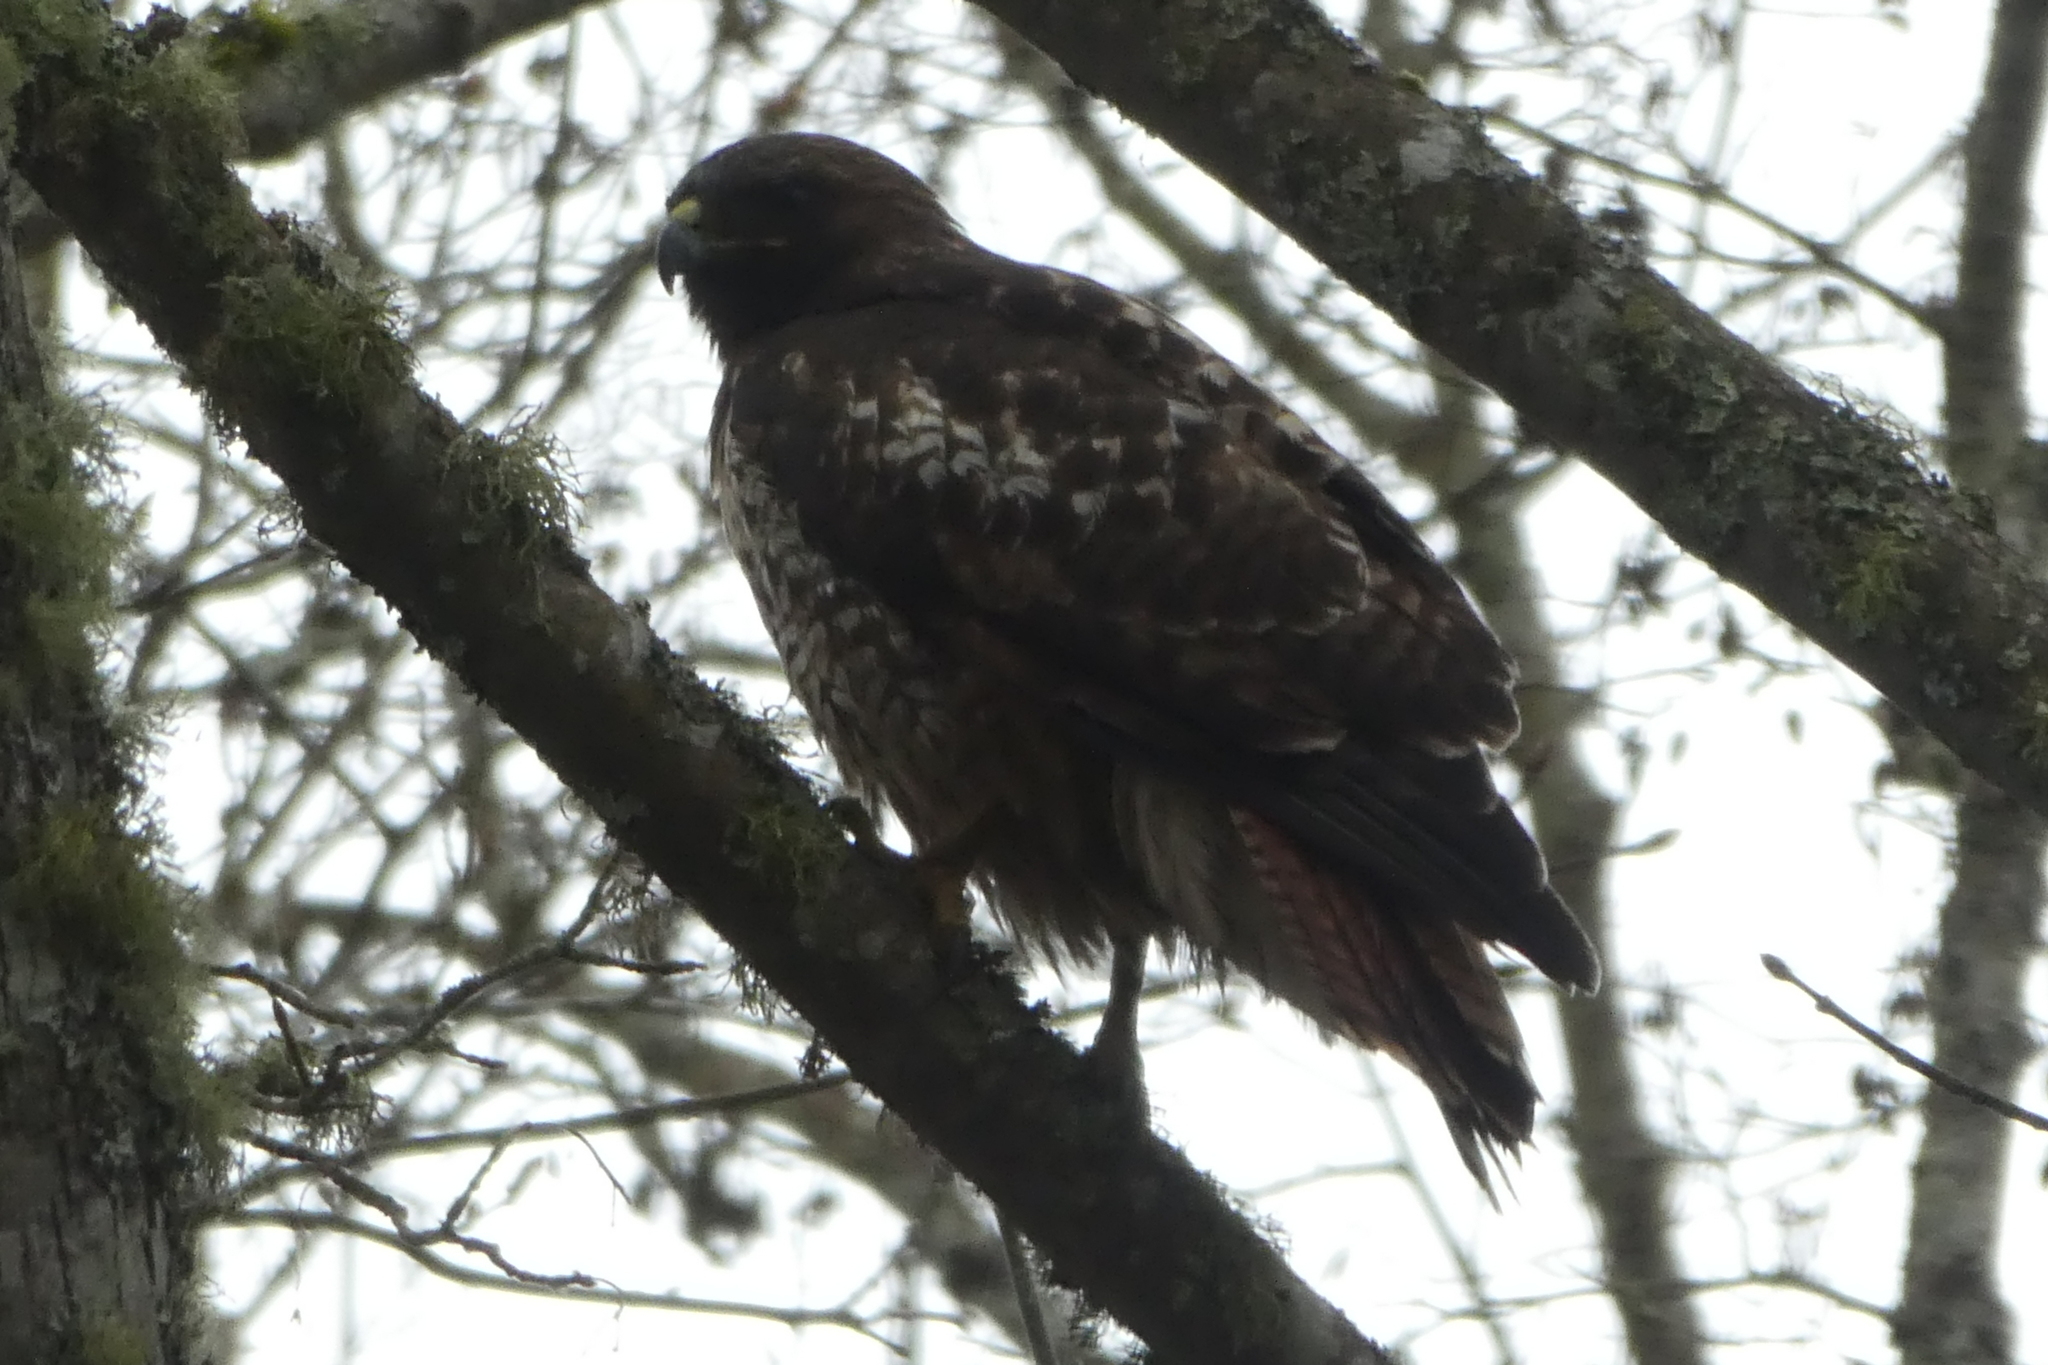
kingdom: Animalia
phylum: Chordata
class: Aves
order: Accipitriformes
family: Accipitridae
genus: Buteo
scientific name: Buteo jamaicensis
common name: Red-tailed hawk
